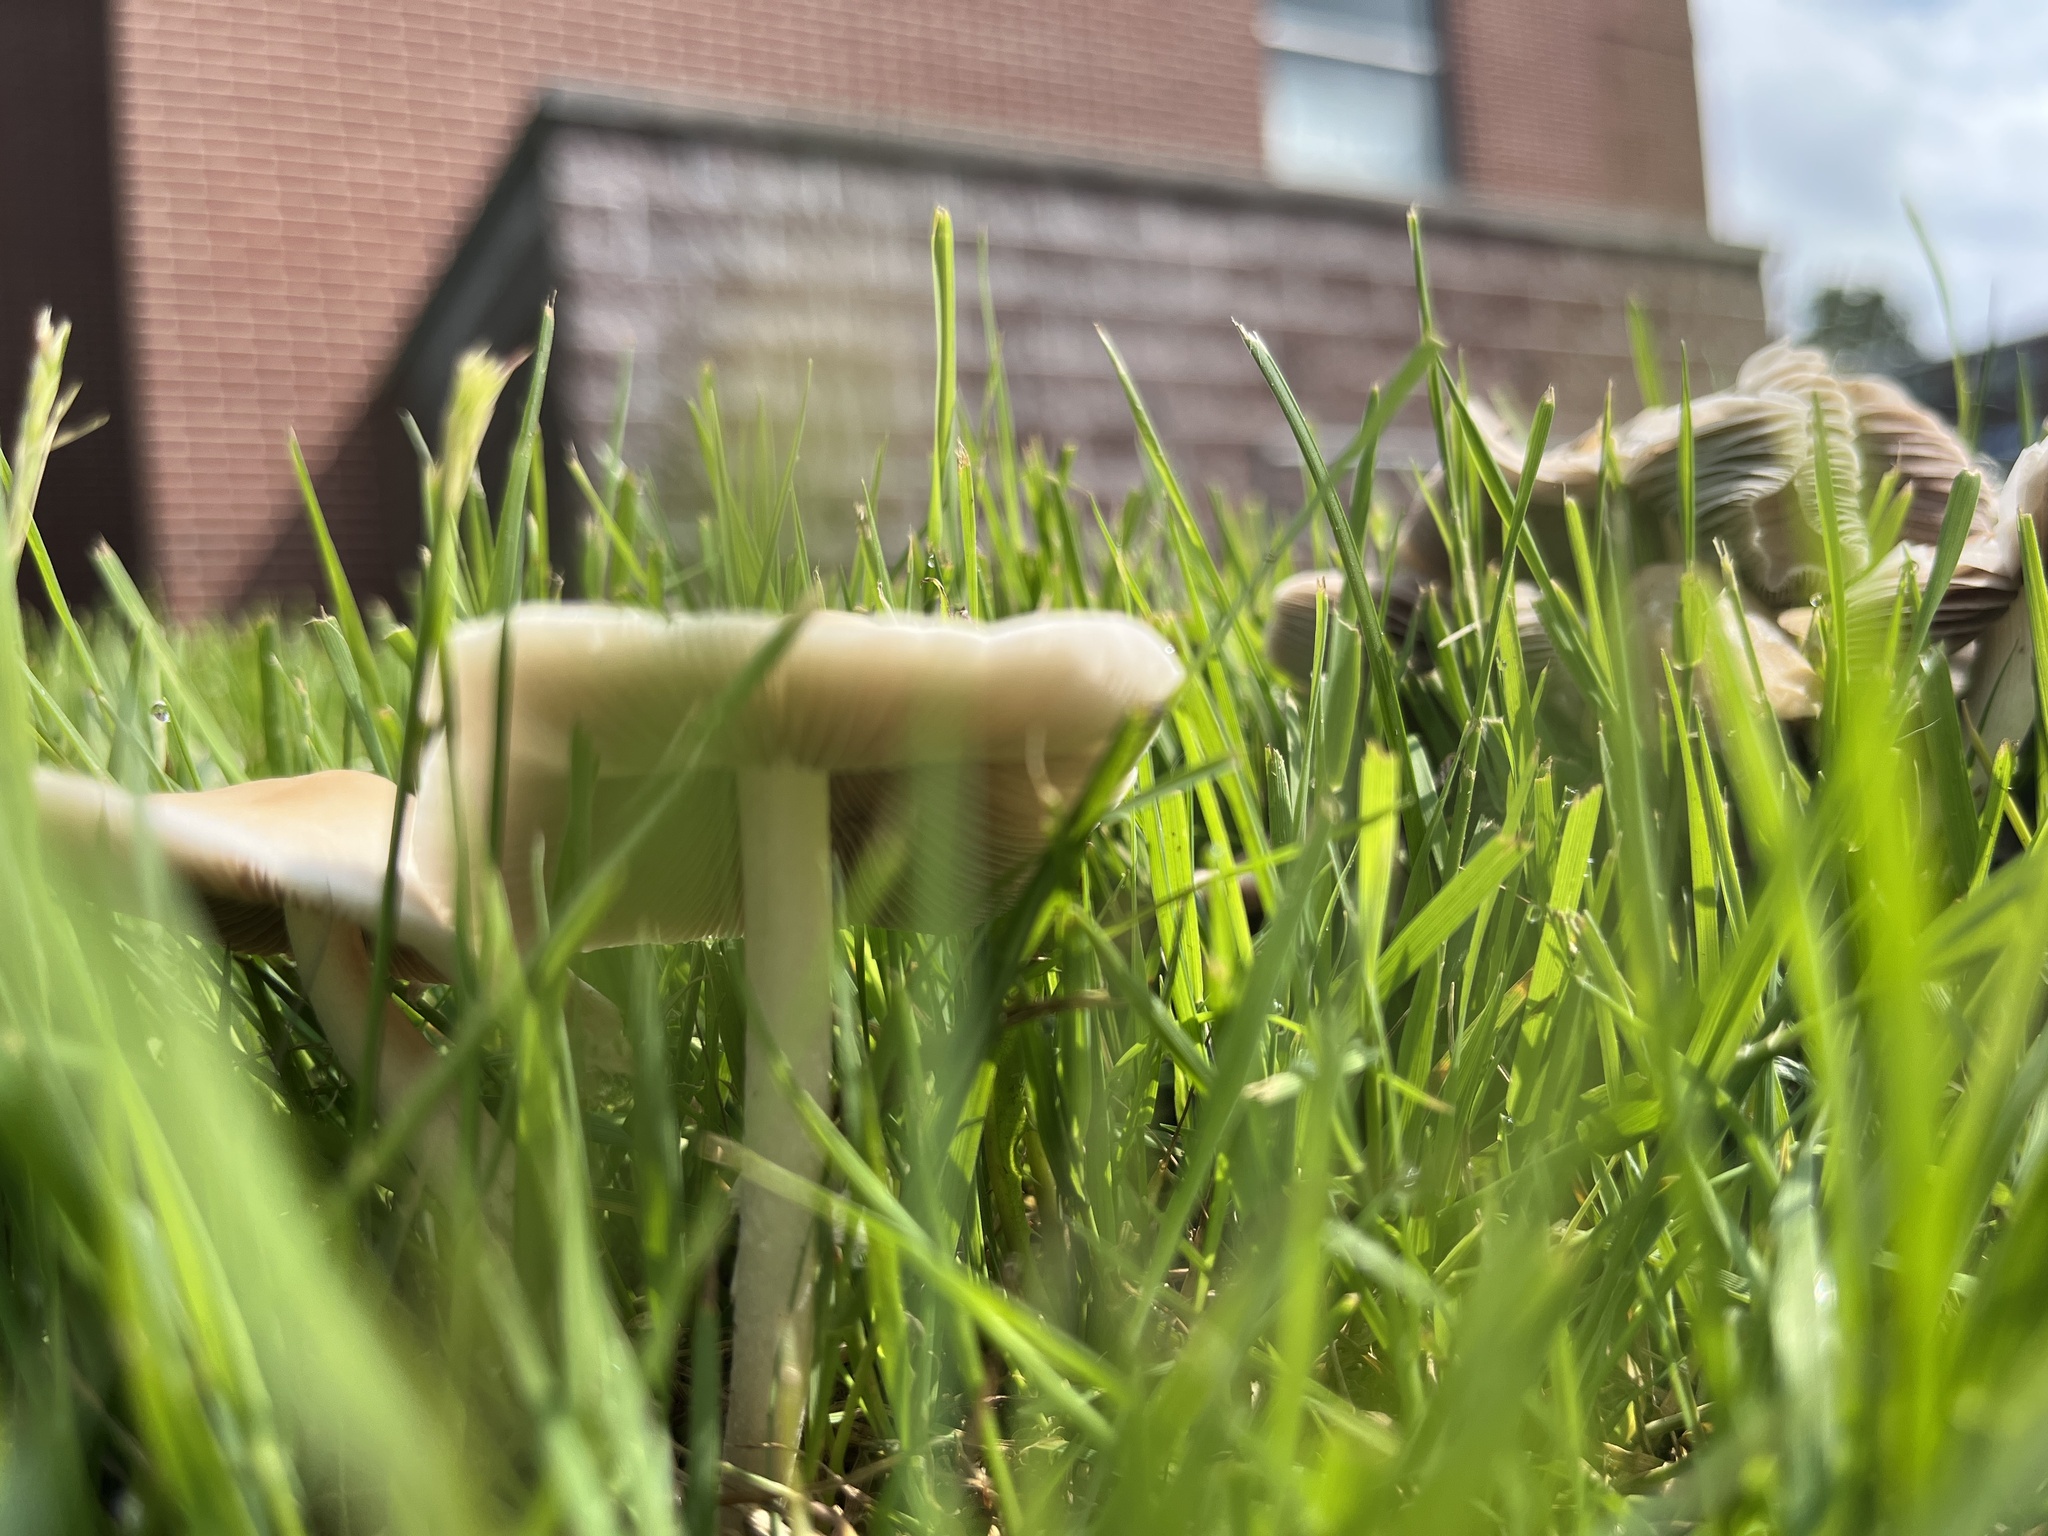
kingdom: Fungi
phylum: Basidiomycota
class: Agaricomycetes
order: Agaricales
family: Psathyrellaceae
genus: Candolleomyces
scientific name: Candolleomyces candolleanus
